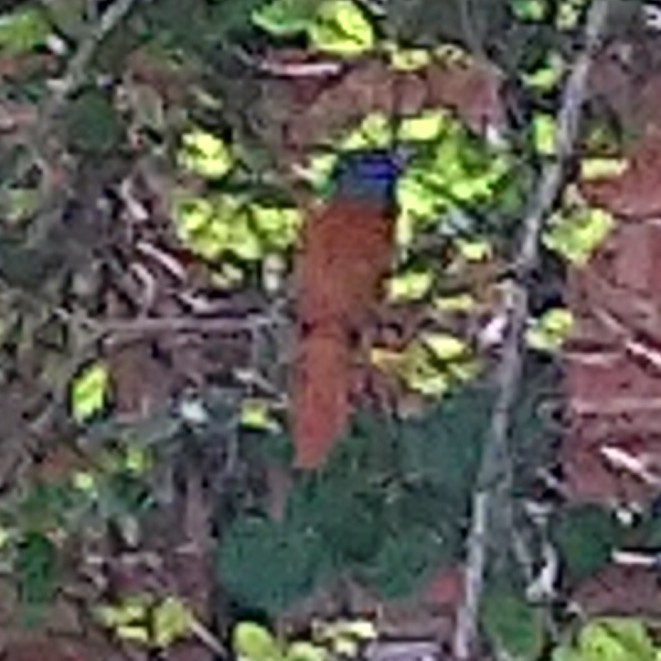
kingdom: Animalia
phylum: Chordata
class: Aves
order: Passeriformes
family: Monarchidae
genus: Terpsiphone
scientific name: Terpsiphone viridis
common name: African paradise flycatcher
